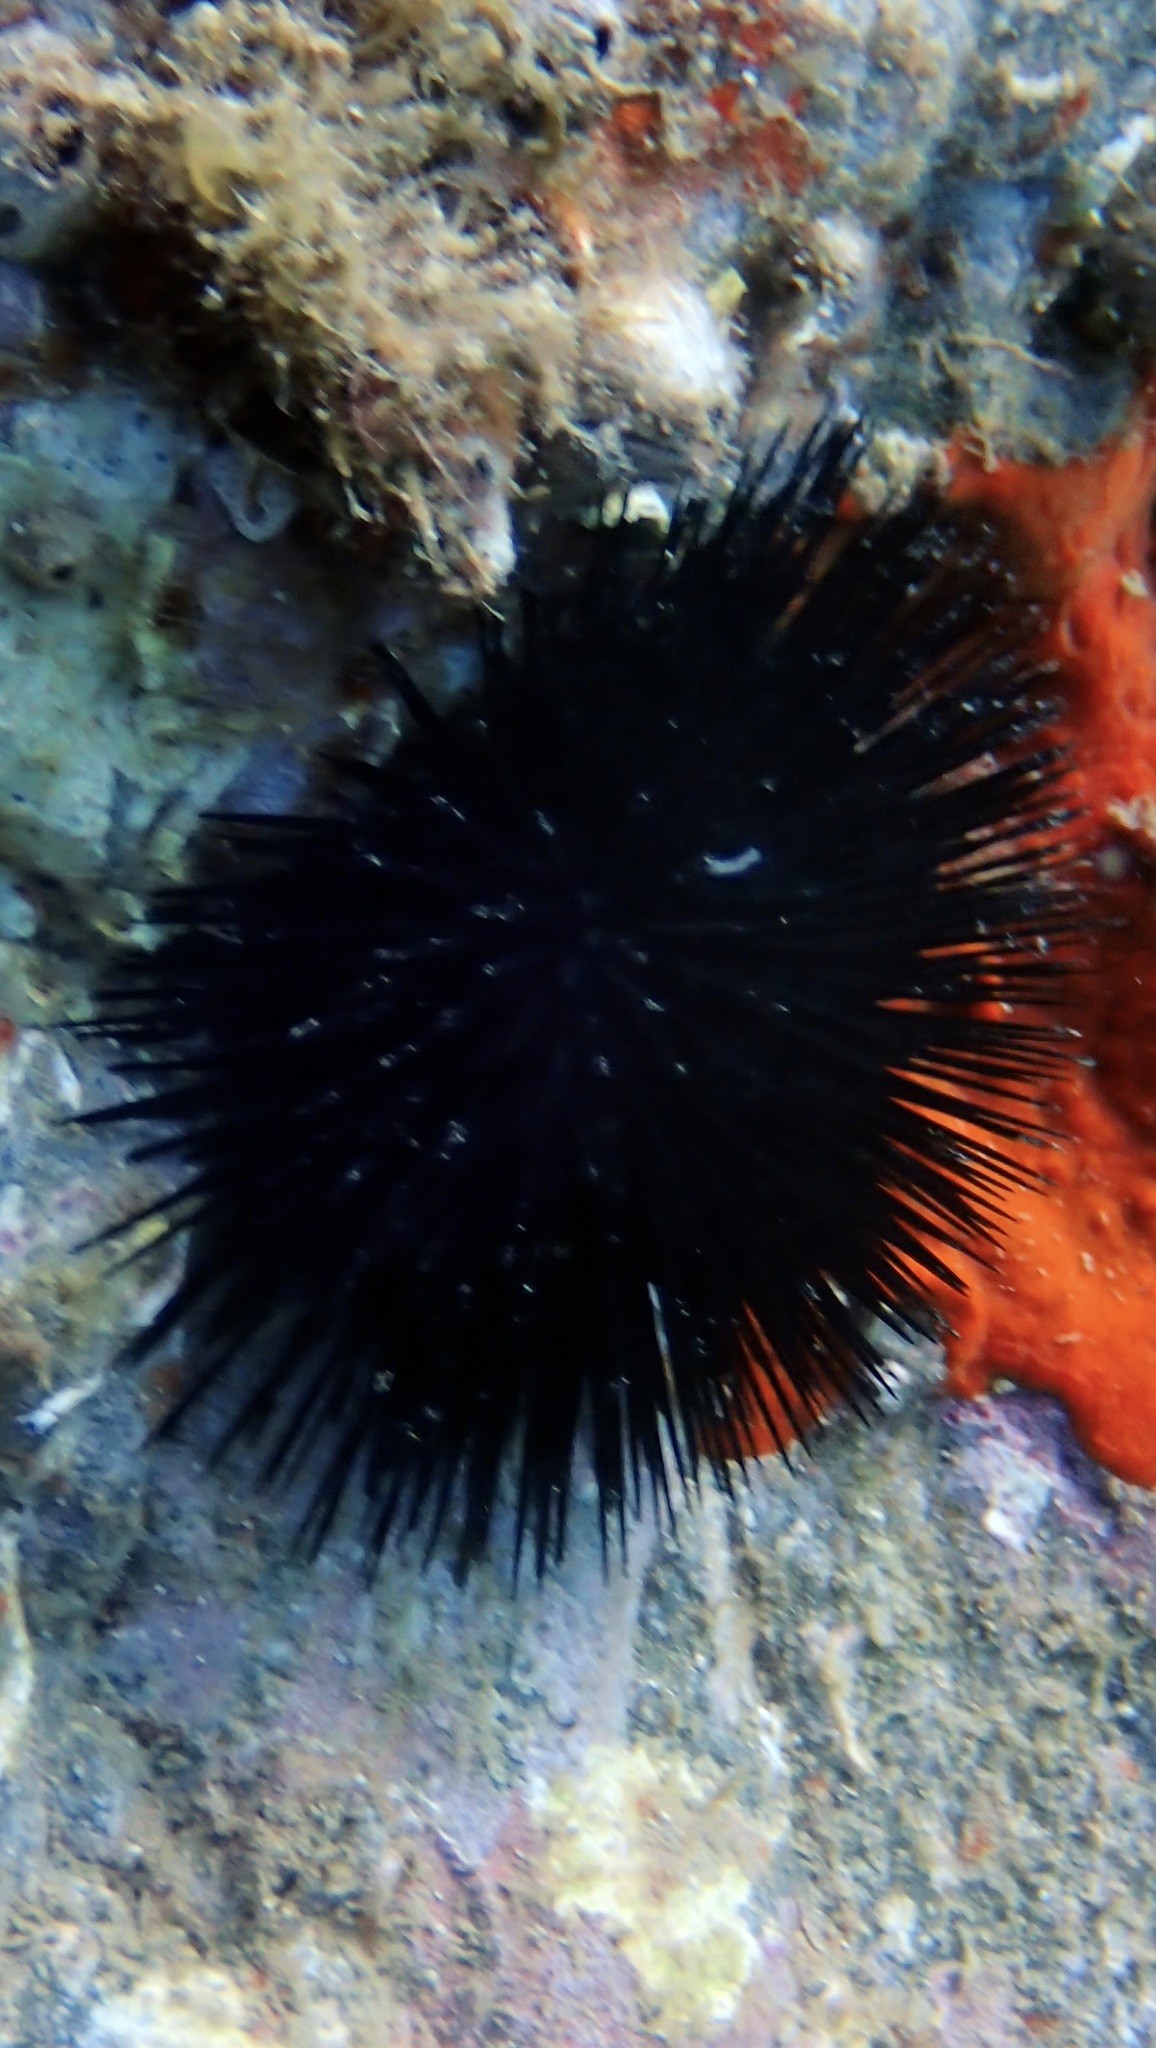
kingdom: Animalia
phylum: Echinodermata
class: Echinoidea
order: Arbacioida
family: Arbaciidae
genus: Arbacia
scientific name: Arbacia lixula
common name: Black sea urchin
